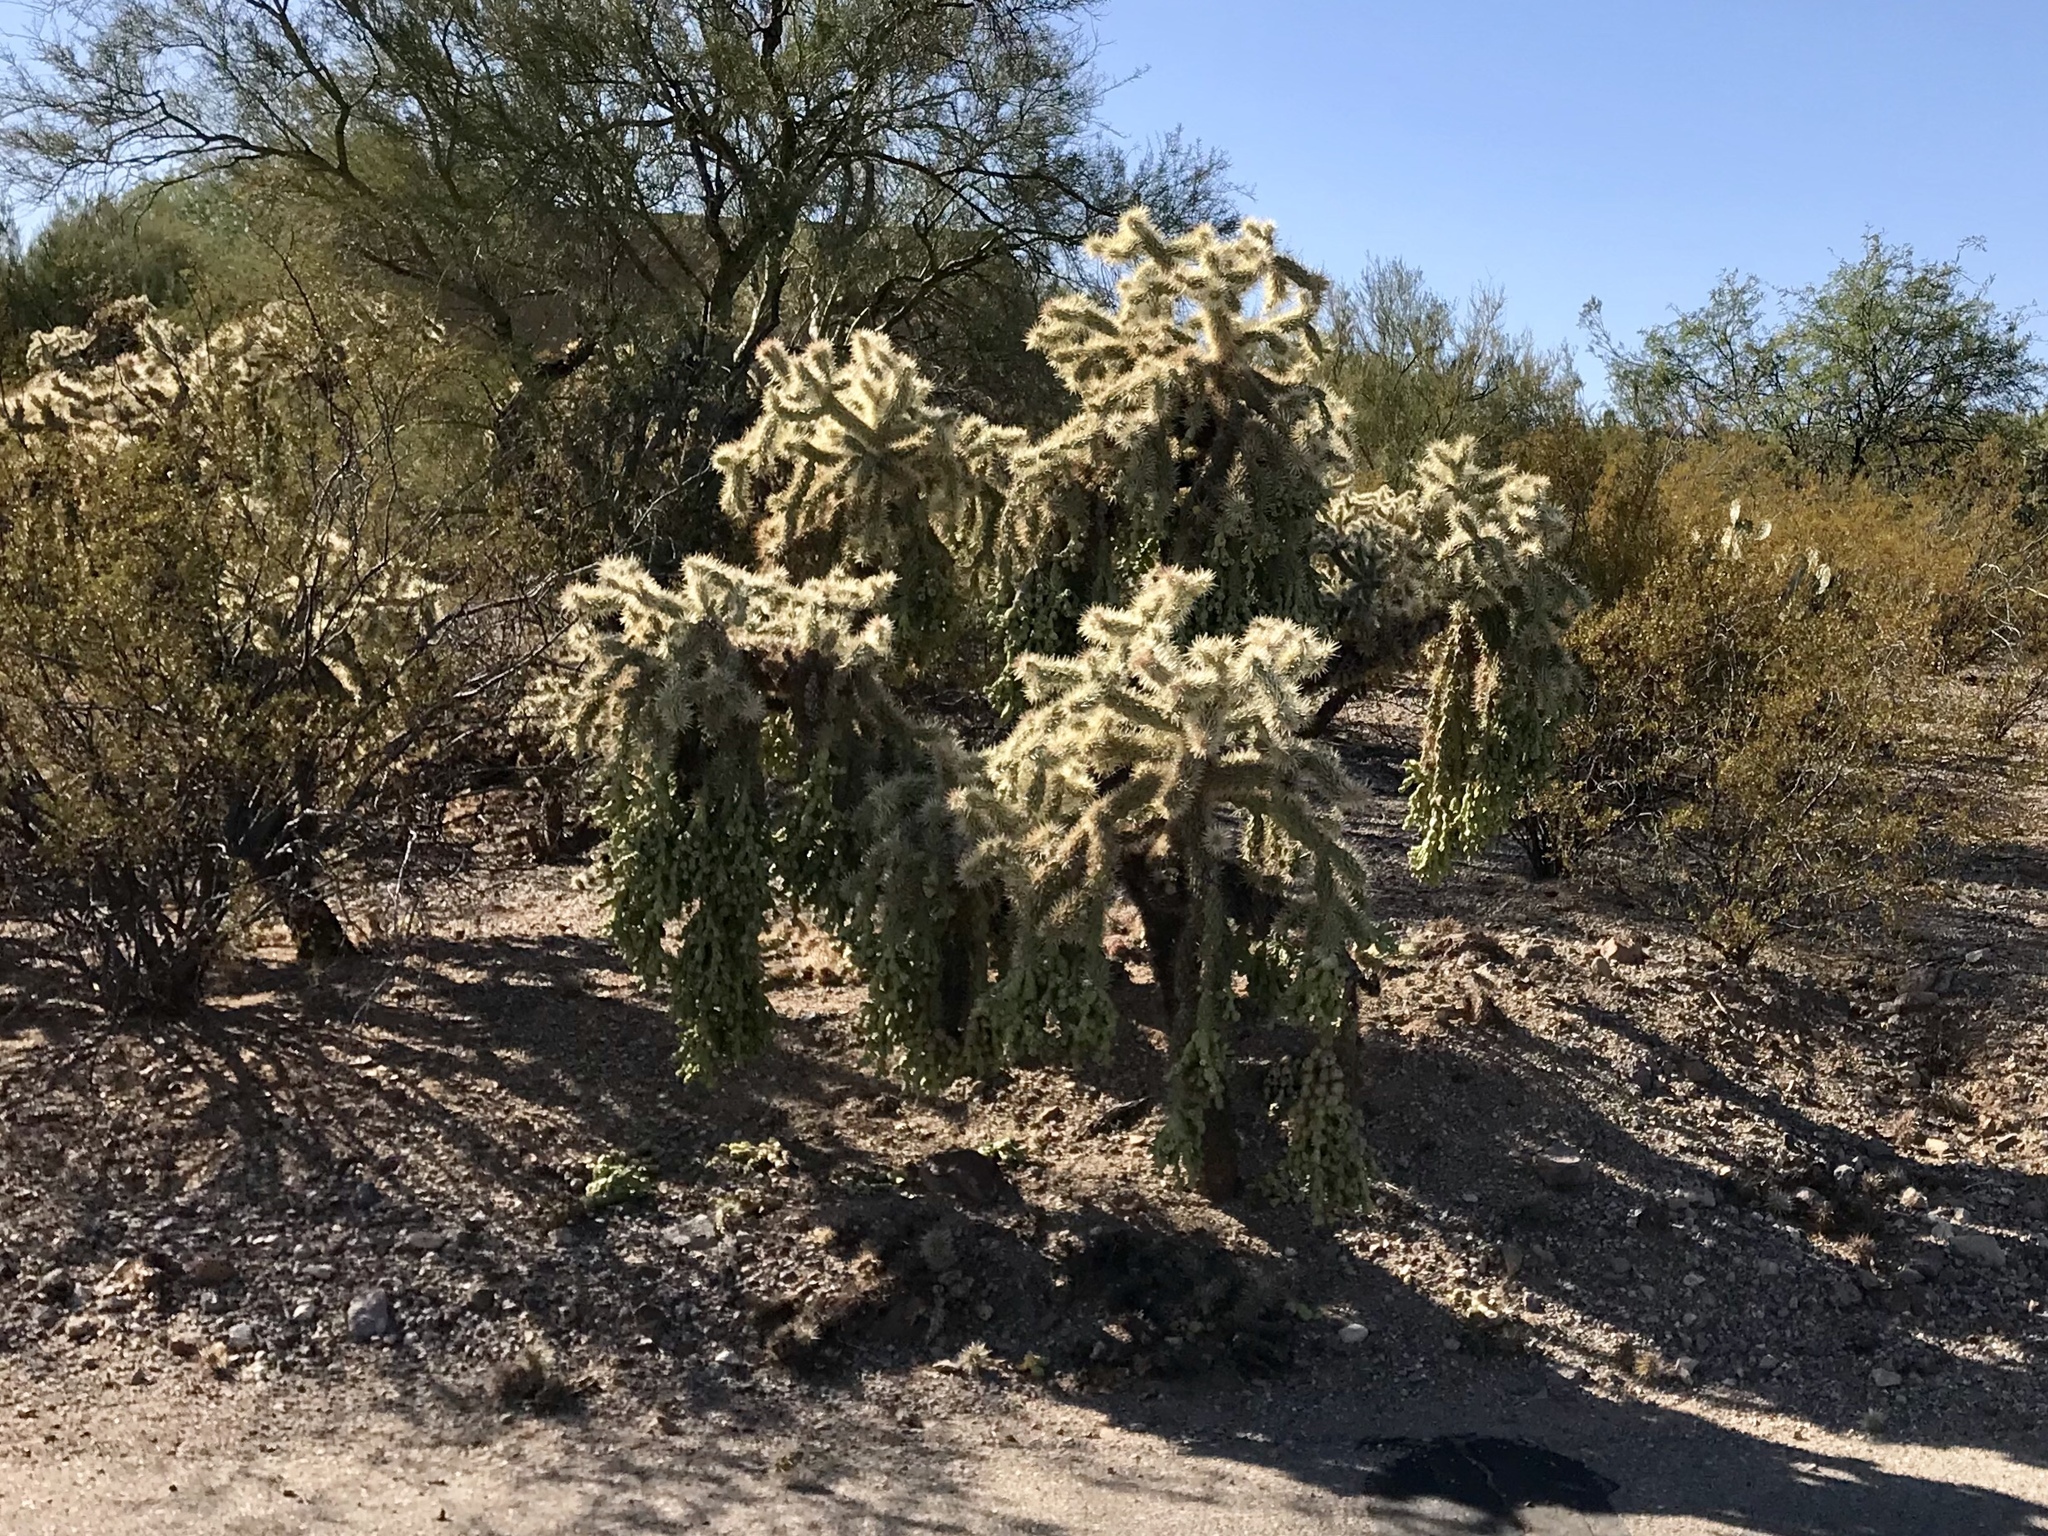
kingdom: Plantae
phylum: Tracheophyta
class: Magnoliopsida
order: Caryophyllales
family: Cactaceae
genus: Cylindropuntia
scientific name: Cylindropuntia fulgida
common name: Jumping cholla
